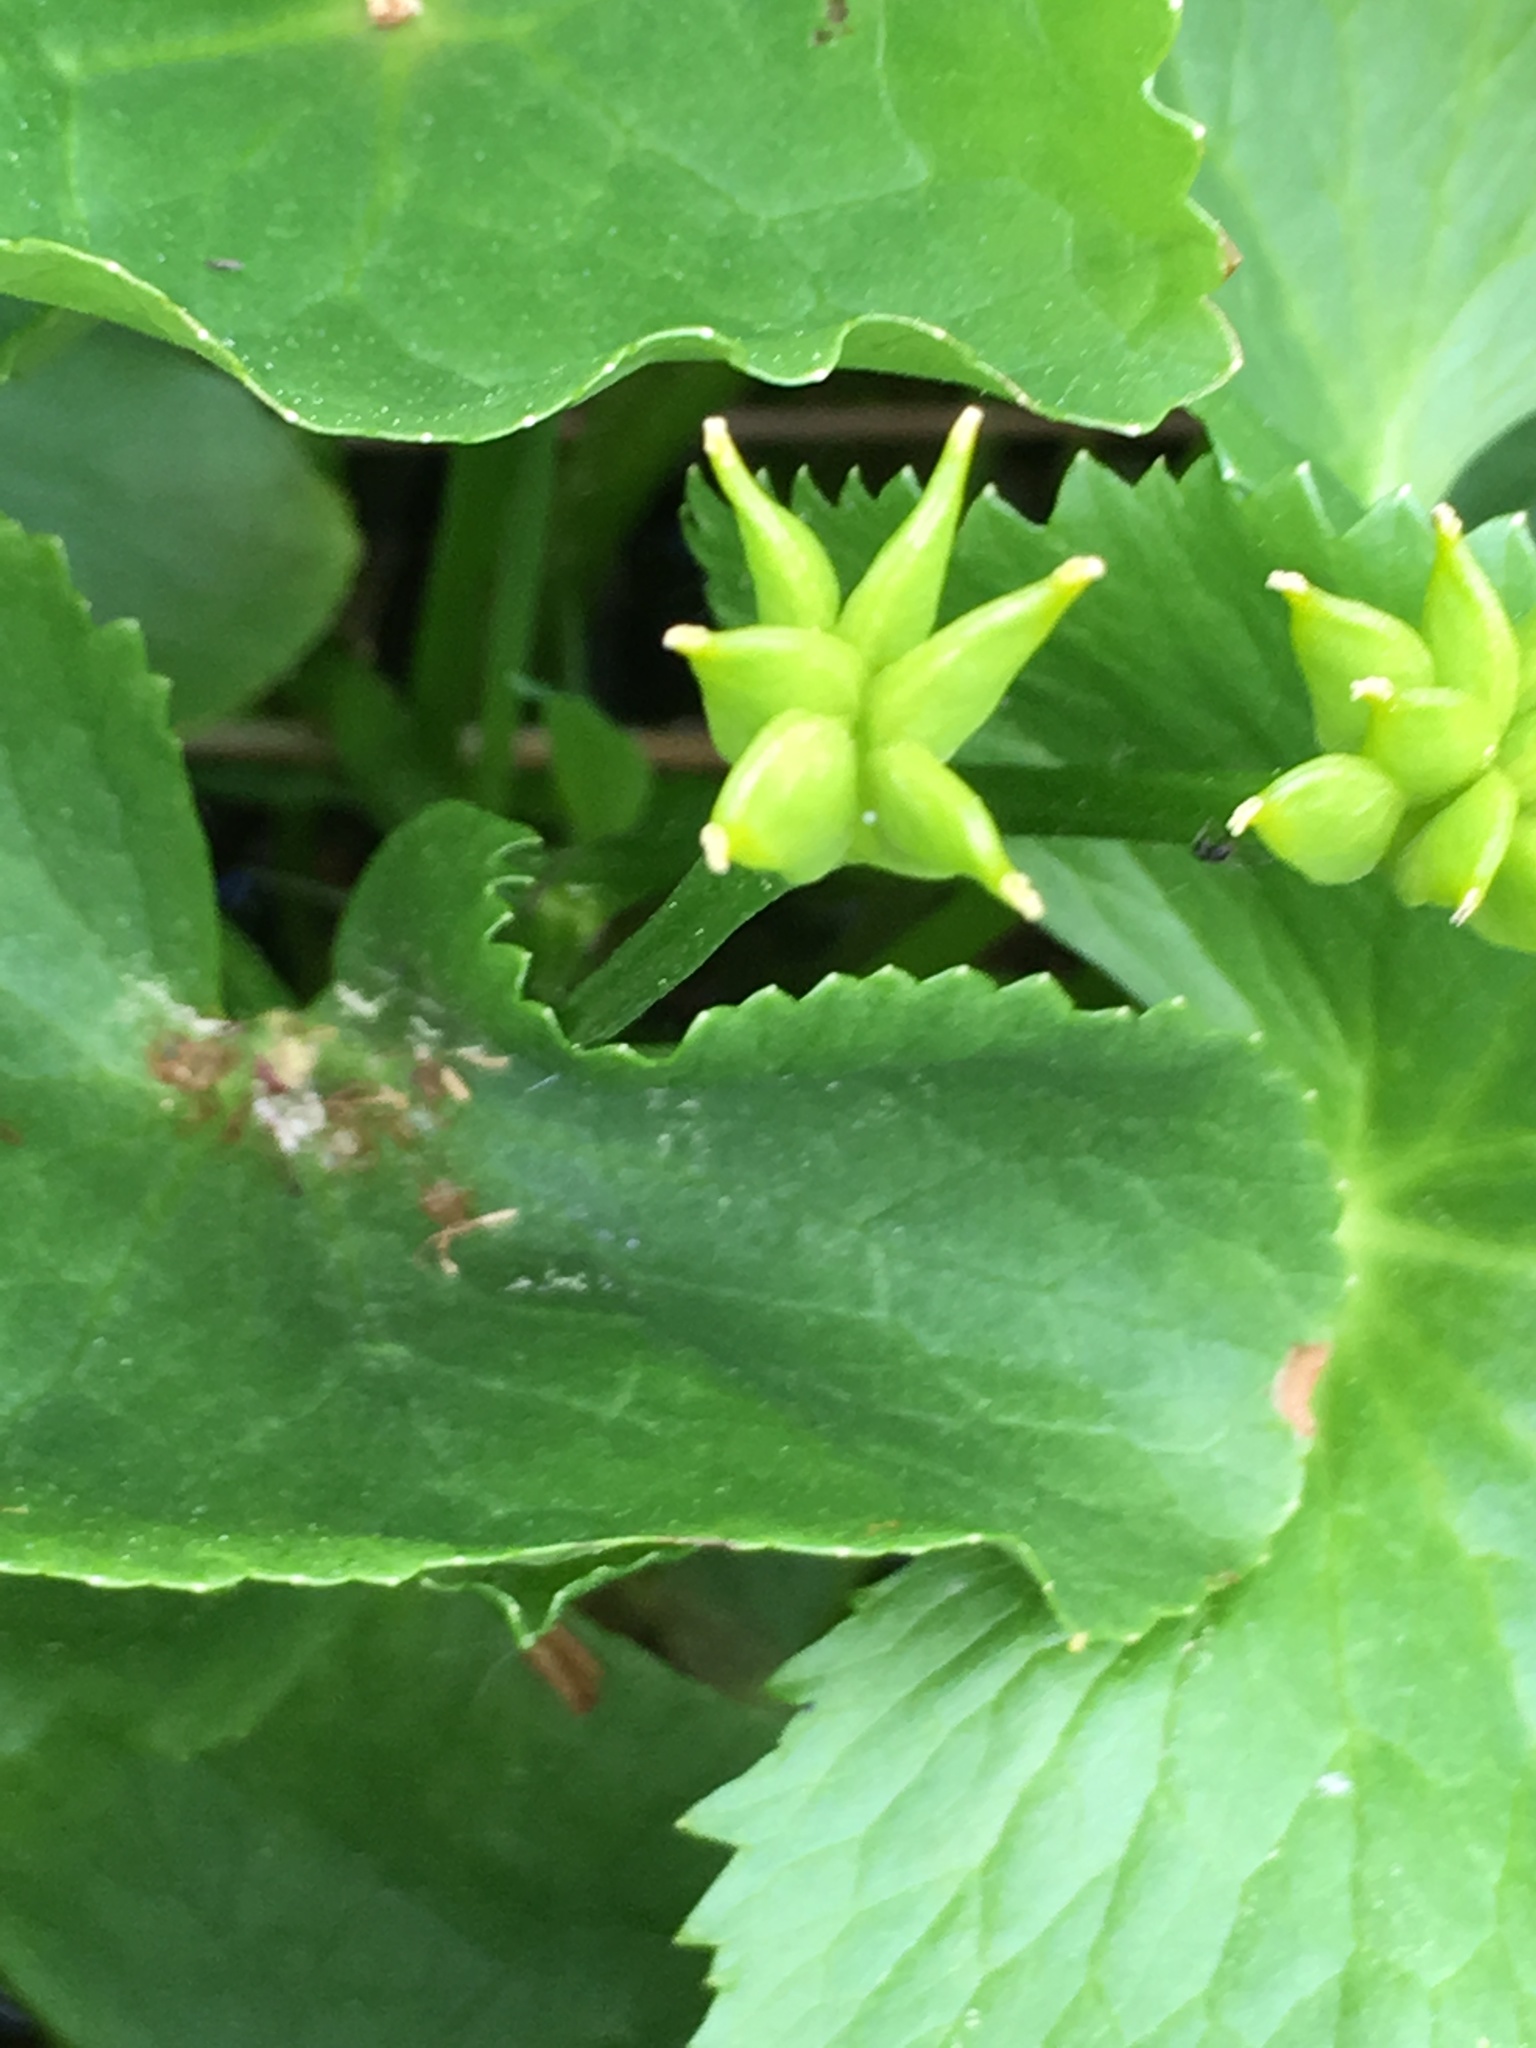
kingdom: Plantae
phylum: Tracheophyta
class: Magnoliopsida
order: Ranunculales
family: Ranunculaceae
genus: Caltha
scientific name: Caltha palustris
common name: Marsh marigold
